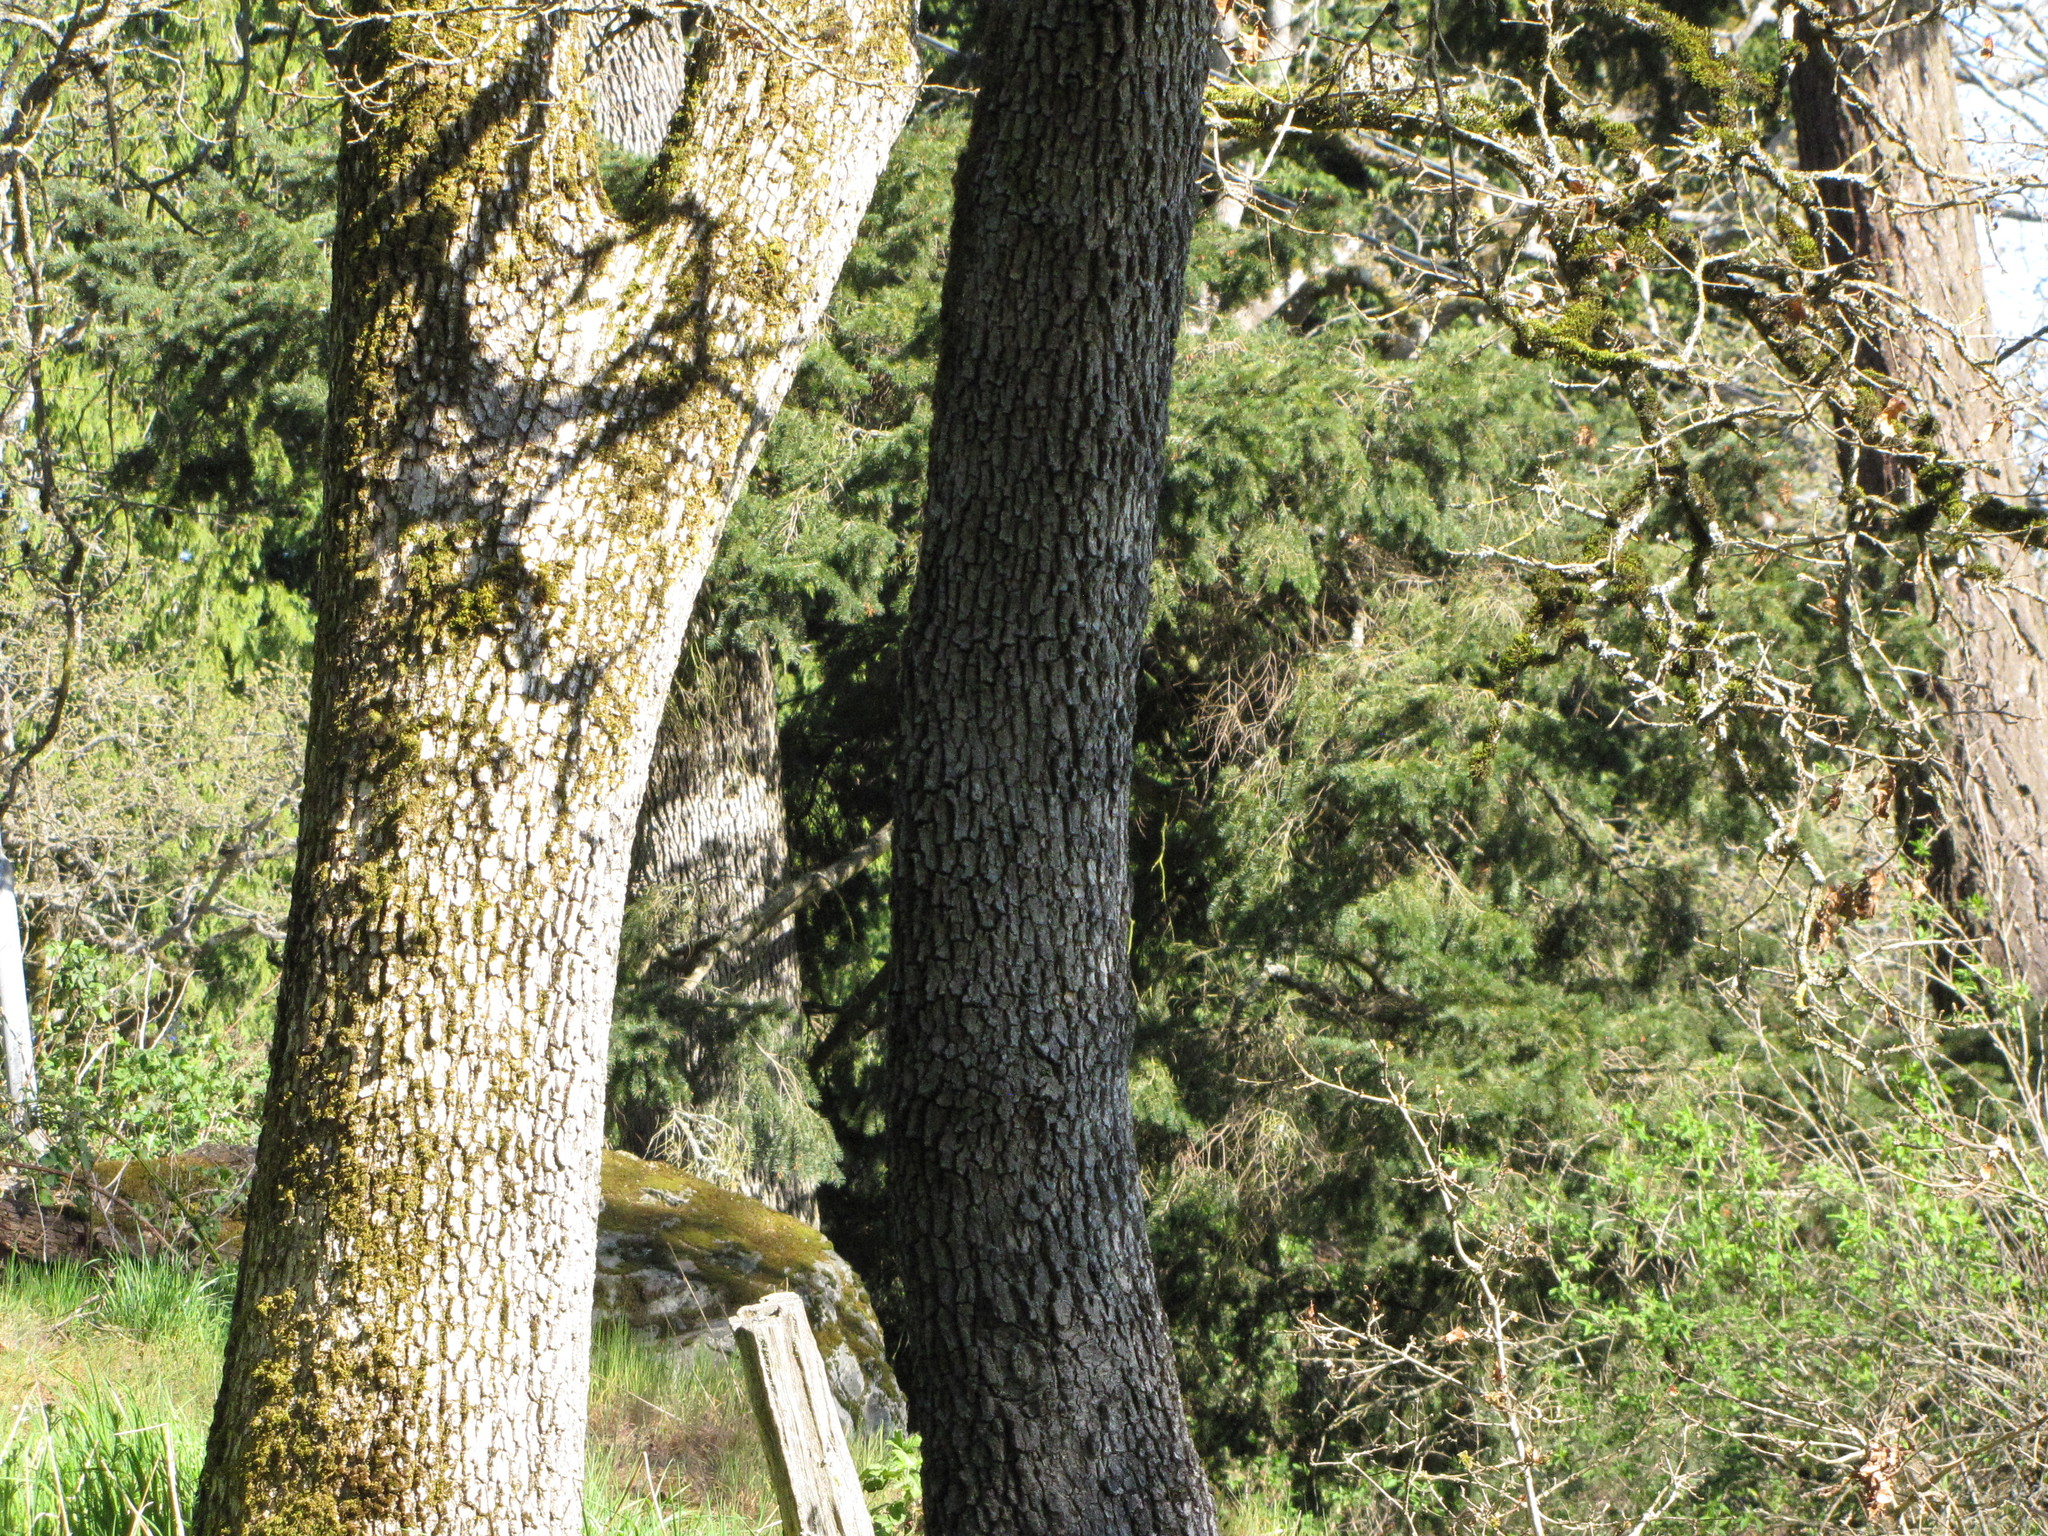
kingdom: Plantae
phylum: Tracheophyta
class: Magnoliopsida
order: Fagales
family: Fagaceae
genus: Quercus
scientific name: Quercus garryana
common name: Garry oak
